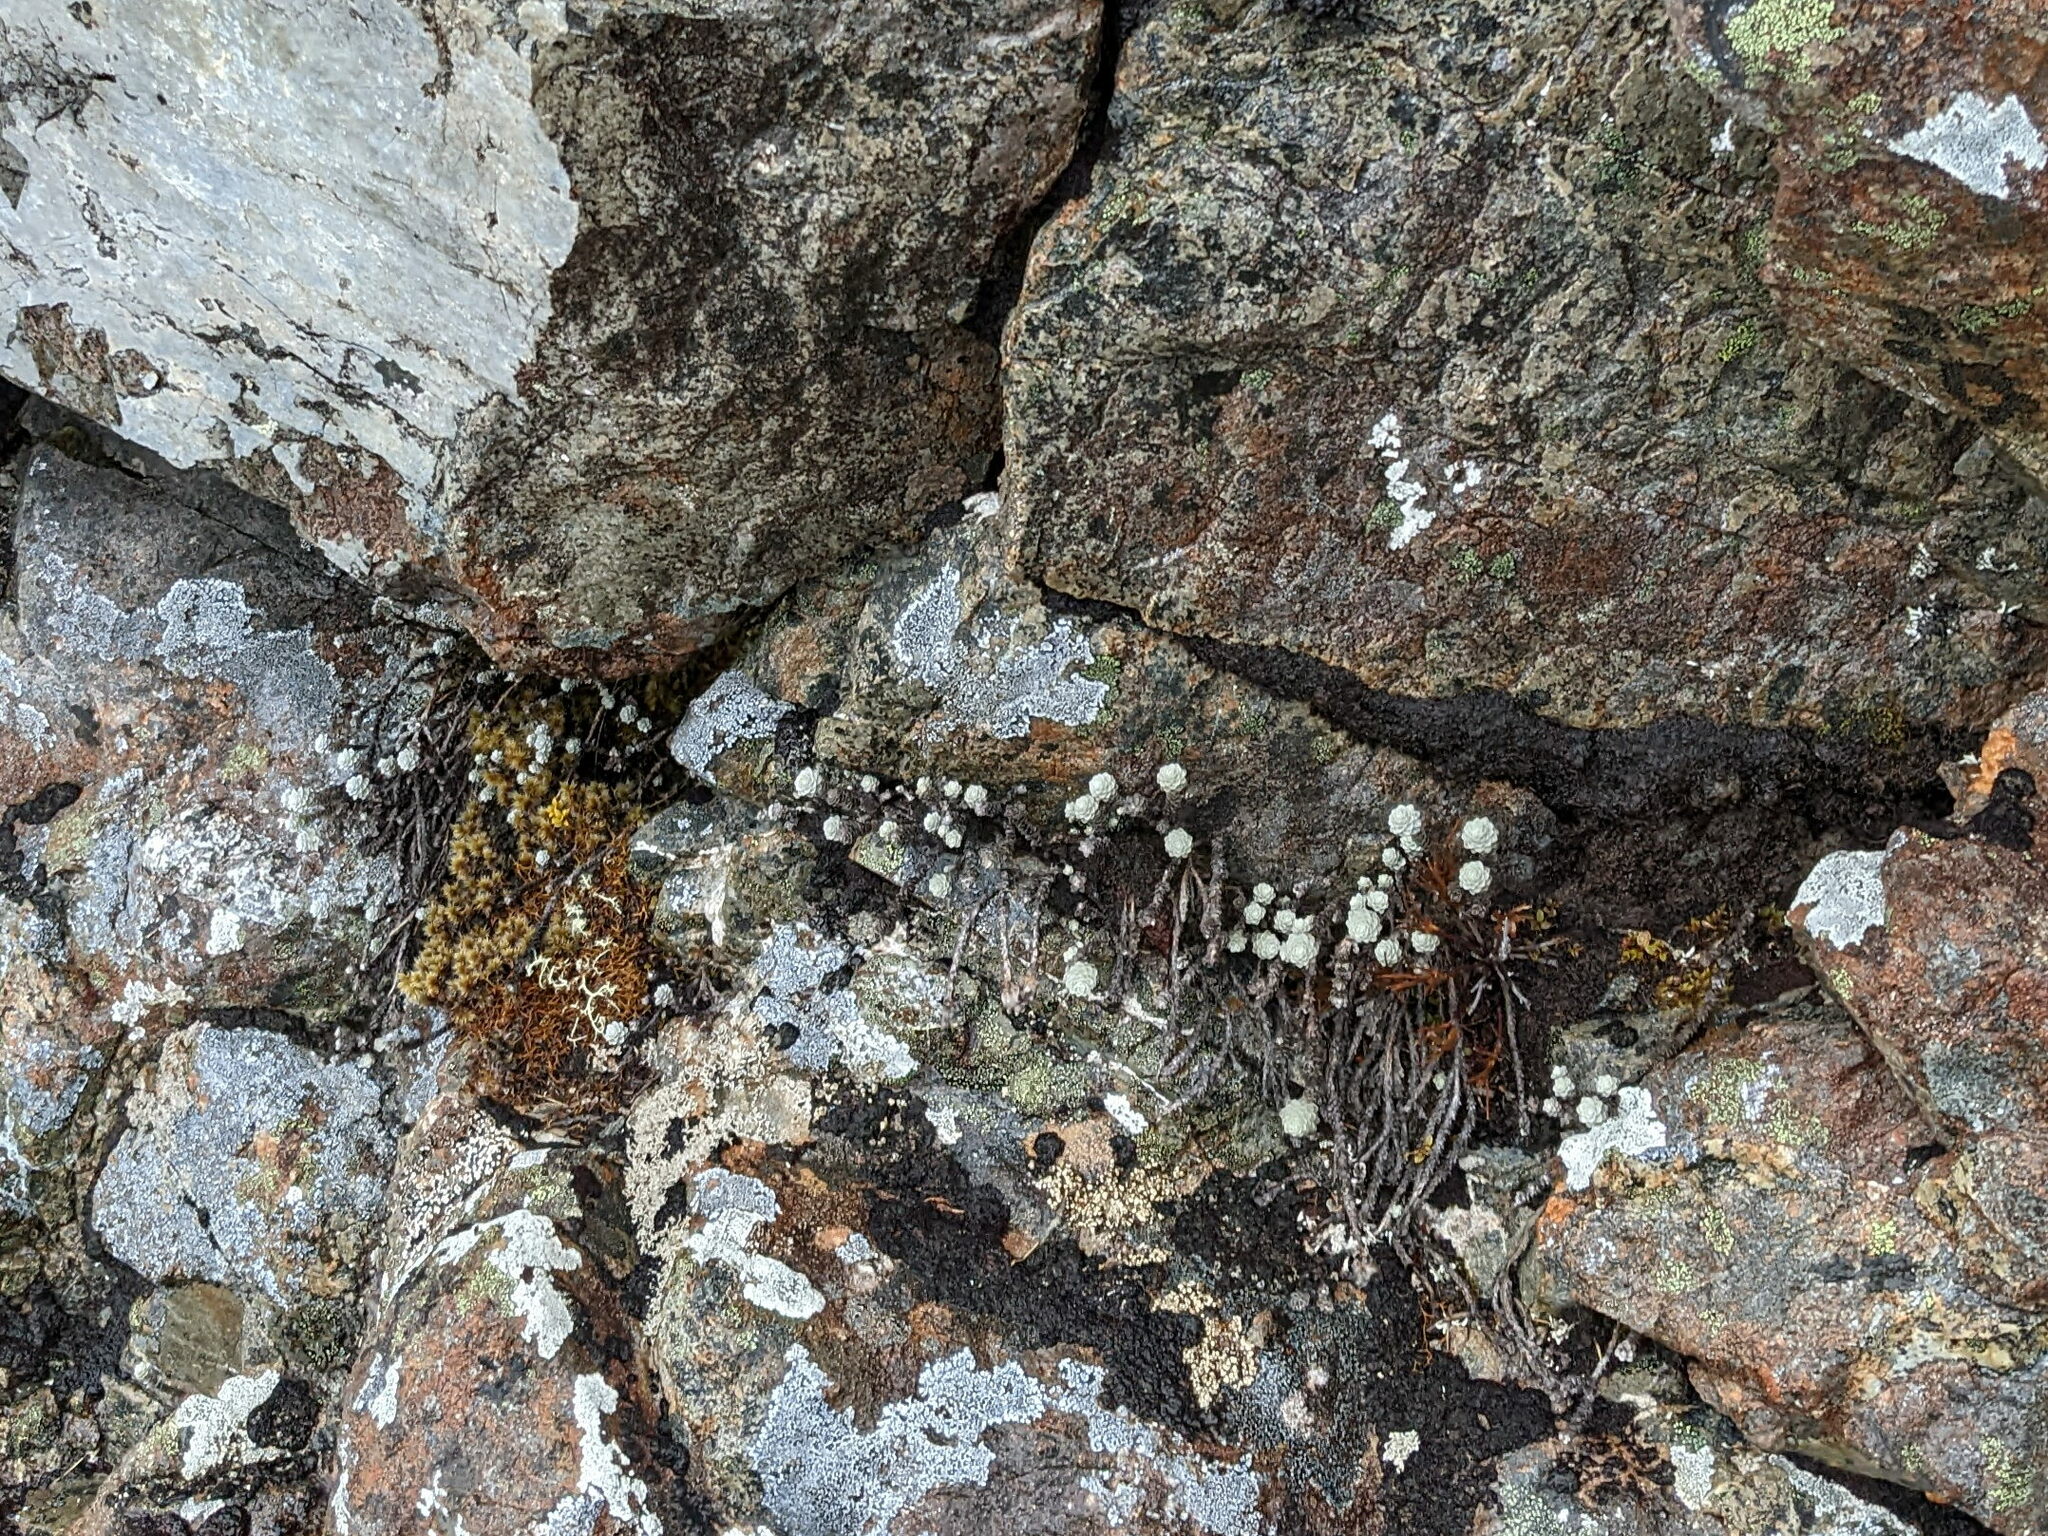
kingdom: Plantae
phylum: Tracheophyta
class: Magnoliopsida
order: Asterales
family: Asteraceae
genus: Leucogenes
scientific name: Leucogenes grandiceps
